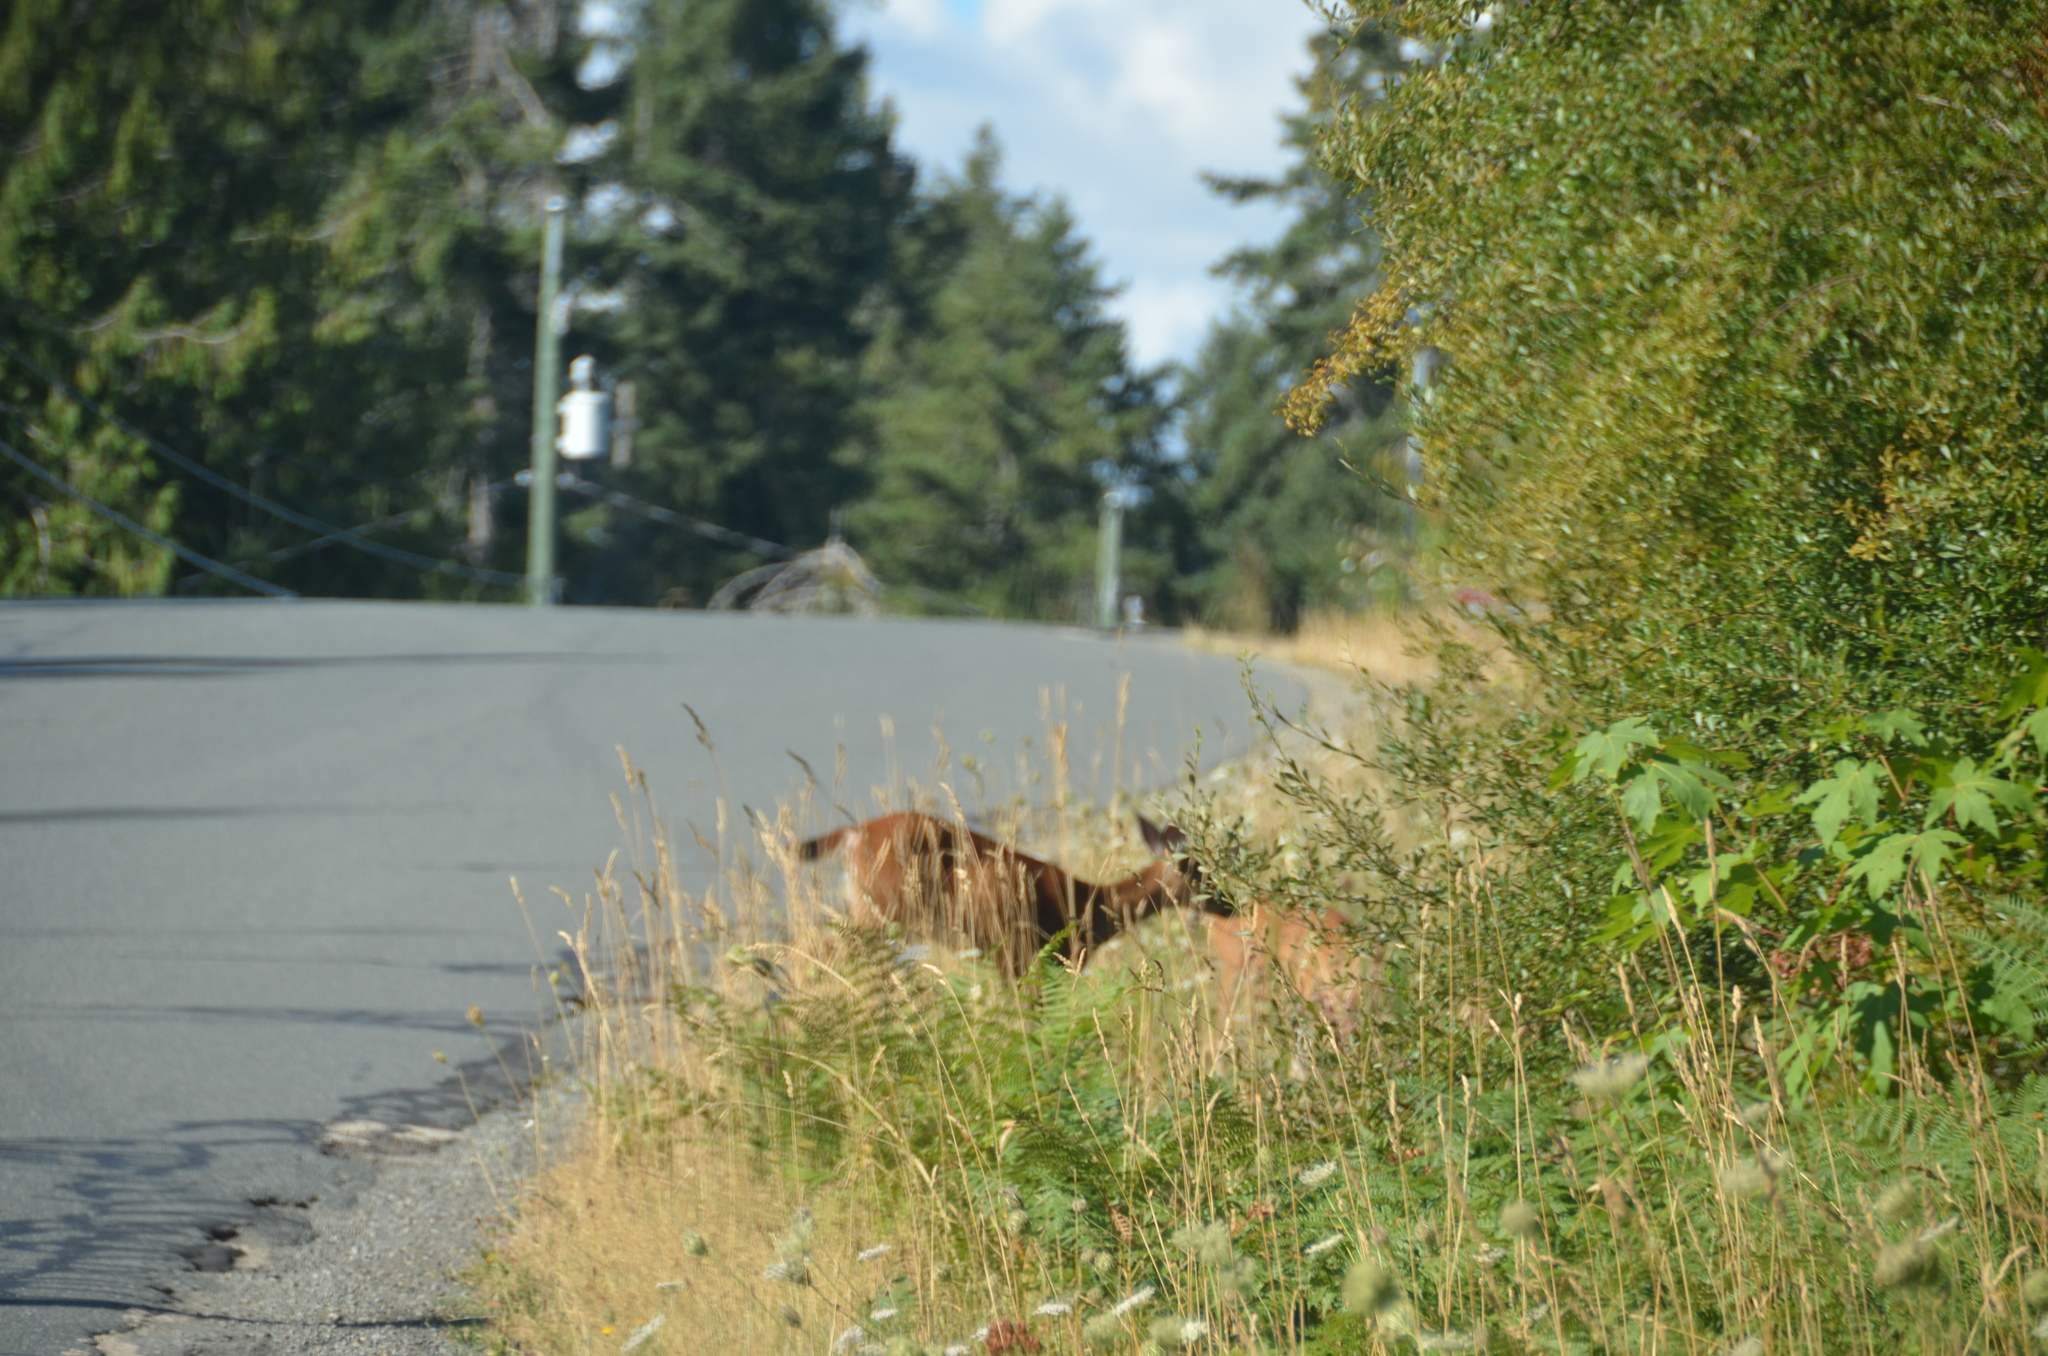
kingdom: Animalia
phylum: Chordata
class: Mammalia
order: Artiodactyla
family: Cervidae
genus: Odocoileus
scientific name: Odocoileus hemionus
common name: Mule deer
